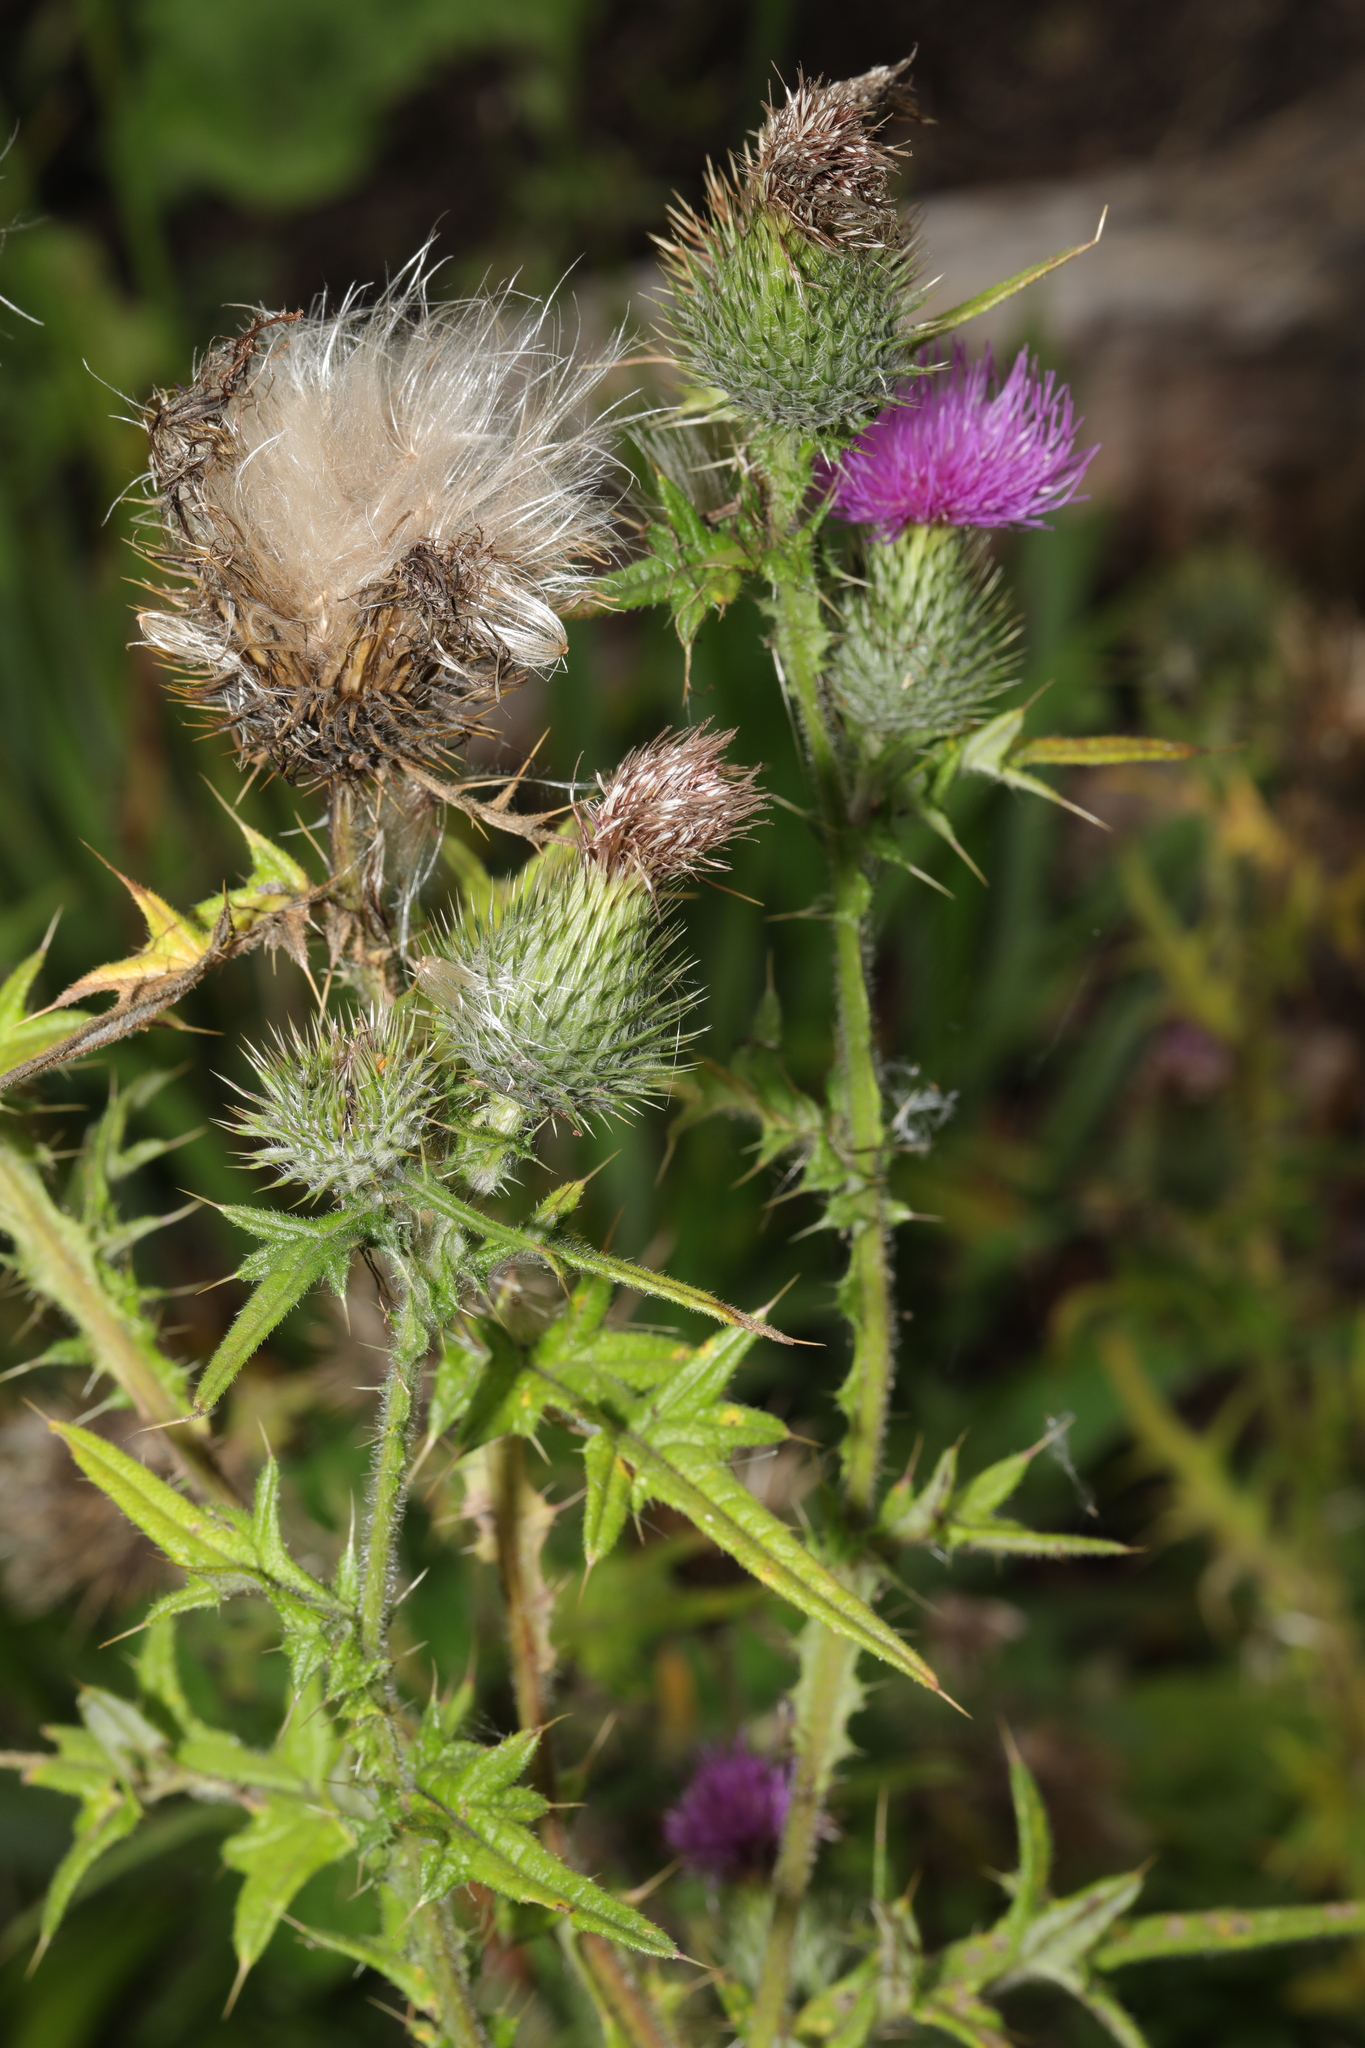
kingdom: Plantae
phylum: Tracheophyta
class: Magnoliopsida
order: Asterales
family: Asteraceae
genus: Cirsium
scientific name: Cirsium vulgare
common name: Bull thistle
